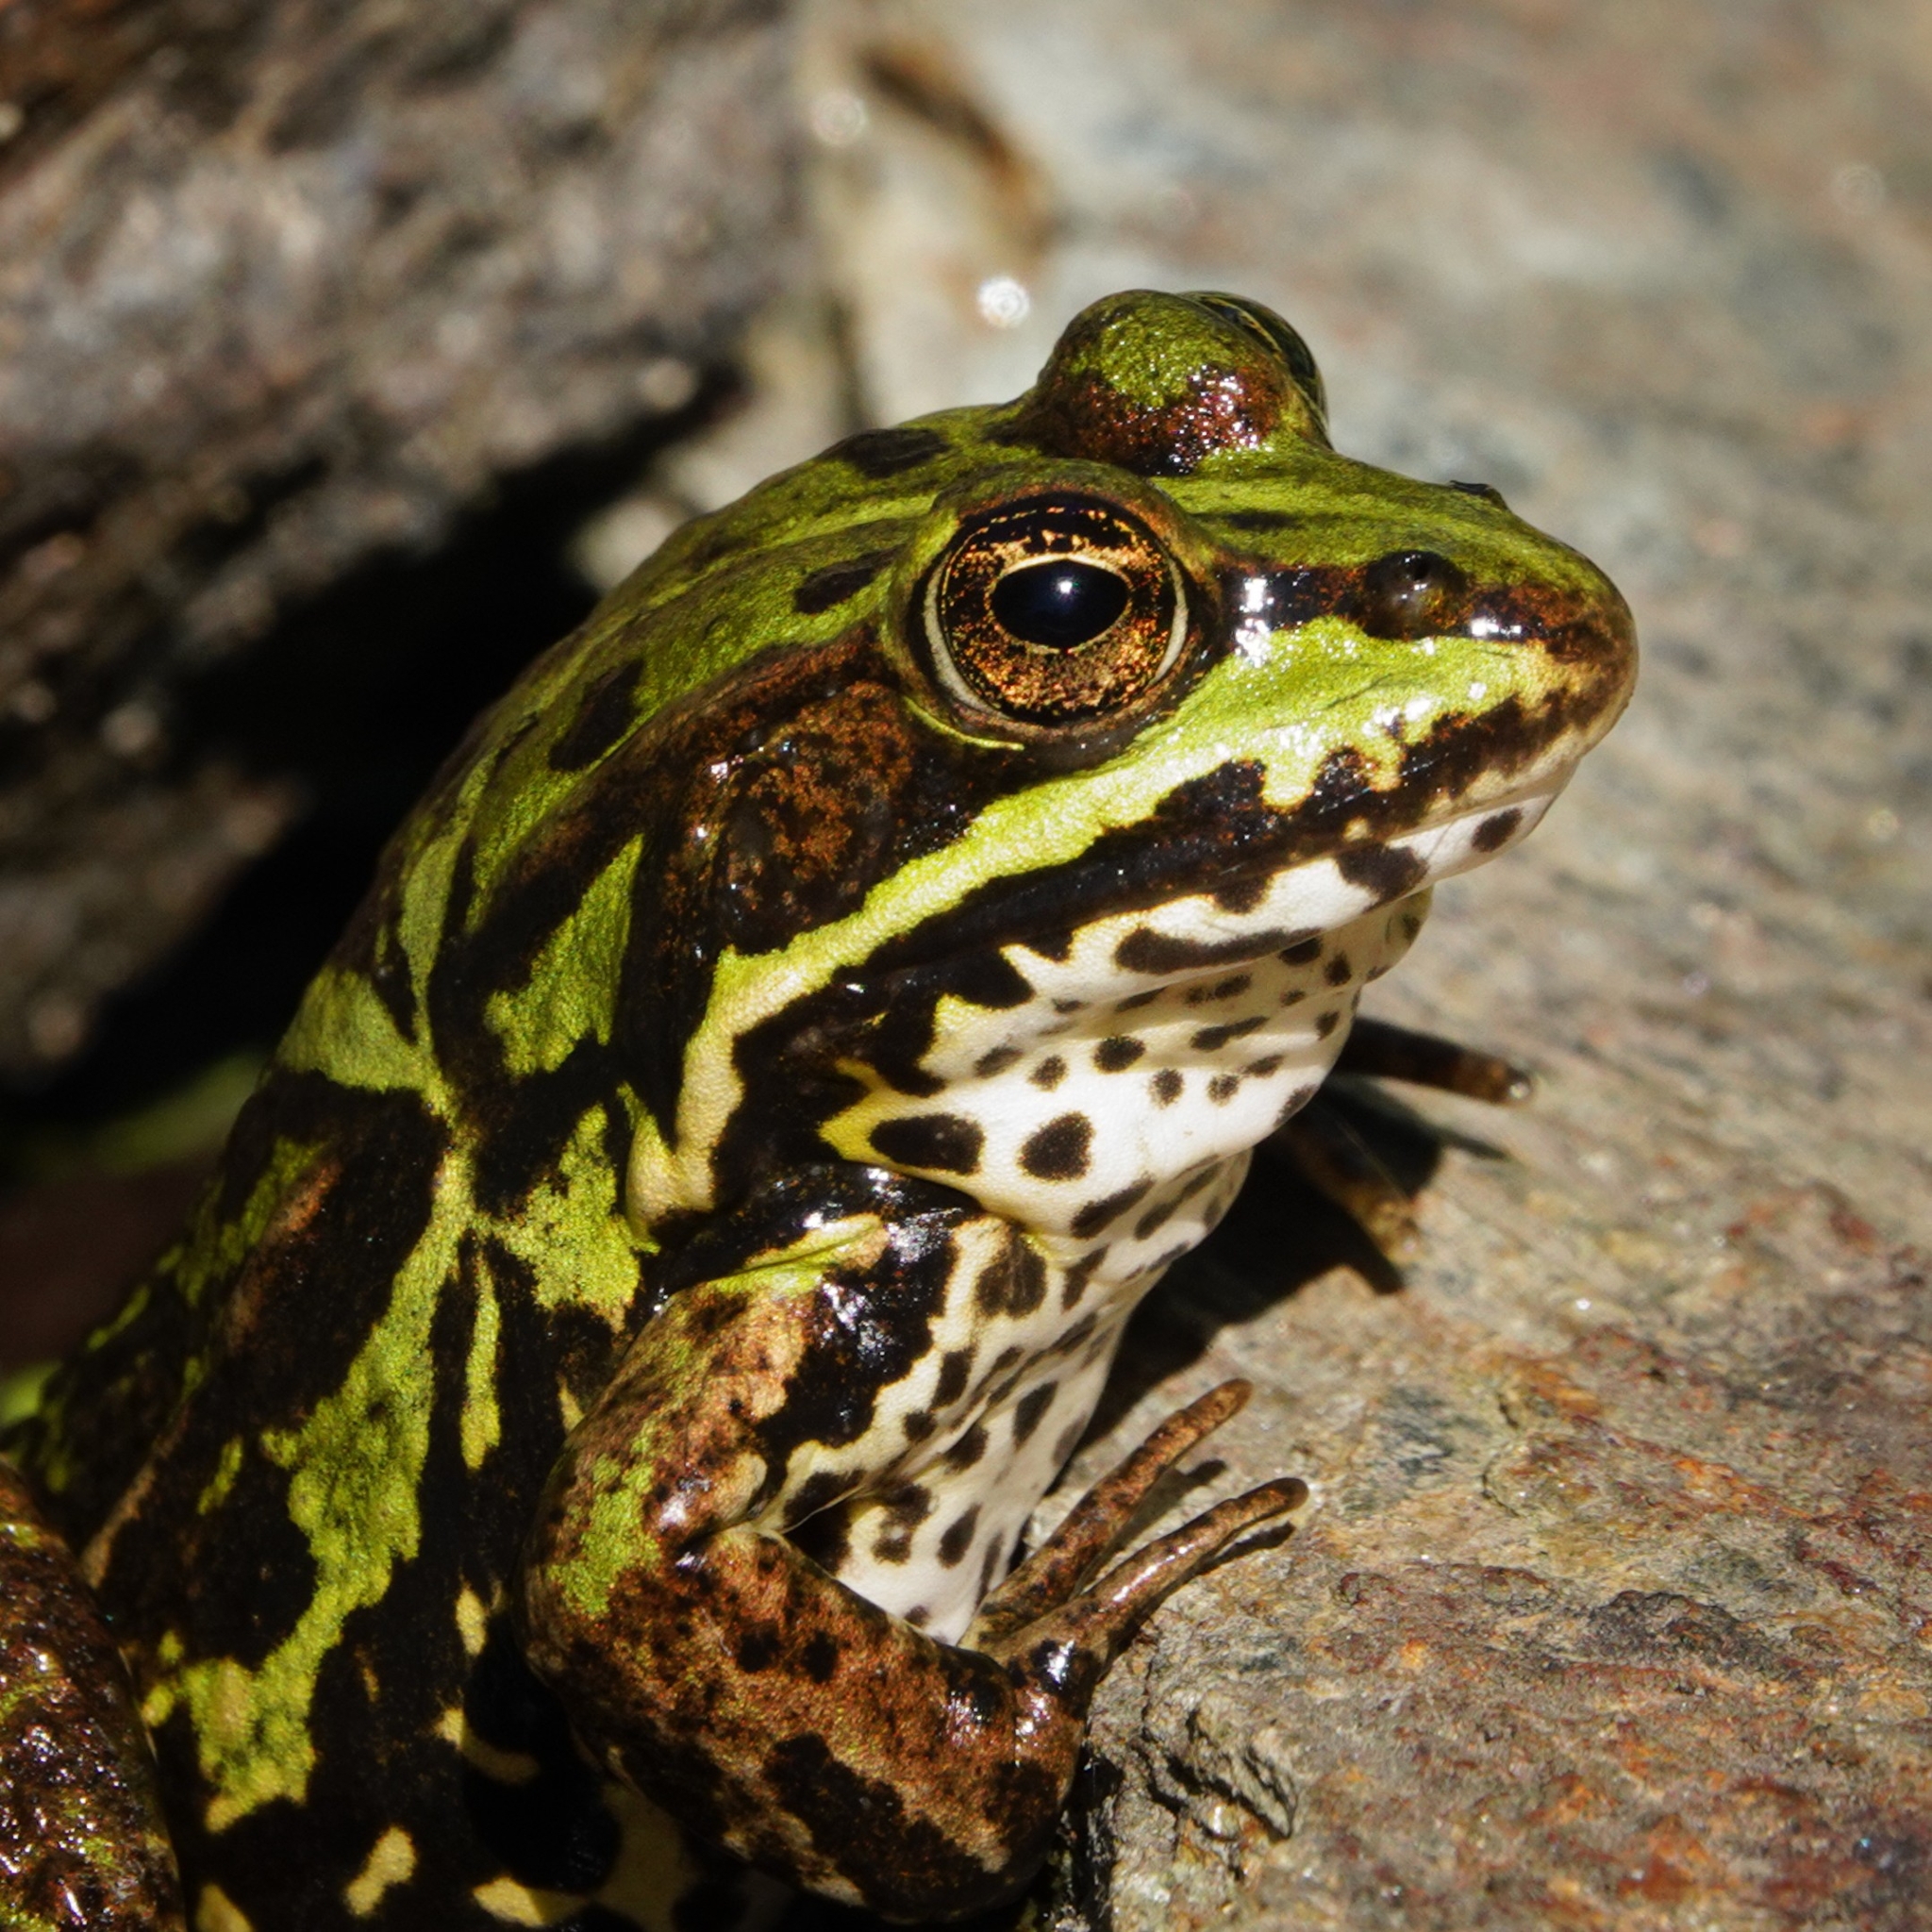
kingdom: Animalia
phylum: Chordata
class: Amphibia
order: Anura
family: Ranidae
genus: Pelophylax
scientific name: Pelophylax lessonae
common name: Pool frog
